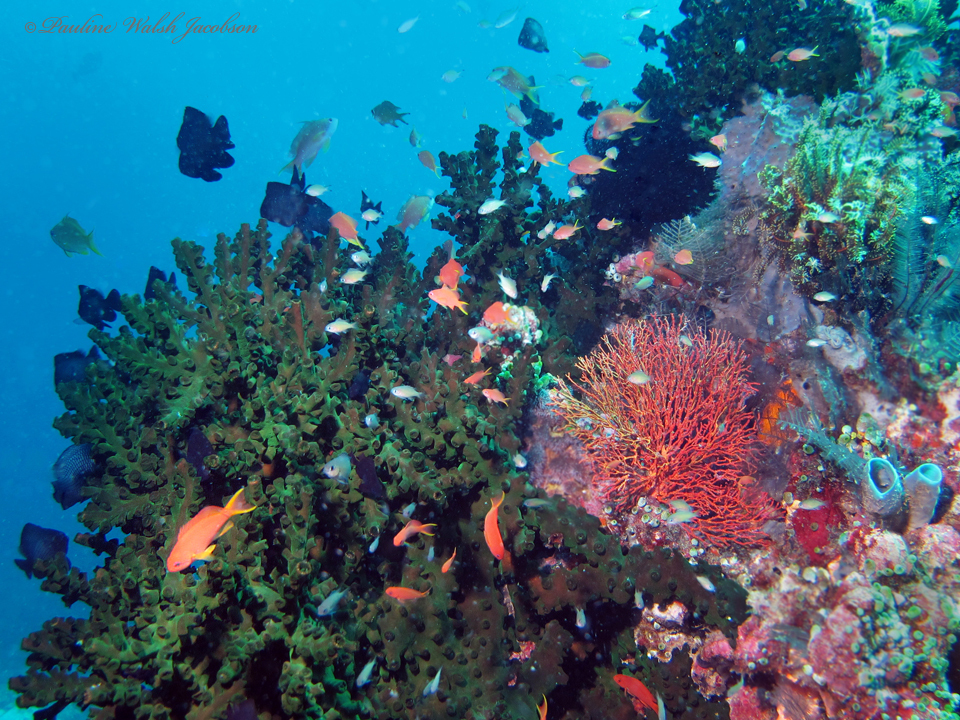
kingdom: Animalia
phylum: Cnidaria
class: Anthozoa
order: Scleractinia
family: Dendrophylliidae
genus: Tubastraea
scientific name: Tubastraea micranthus
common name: Black sun coral
